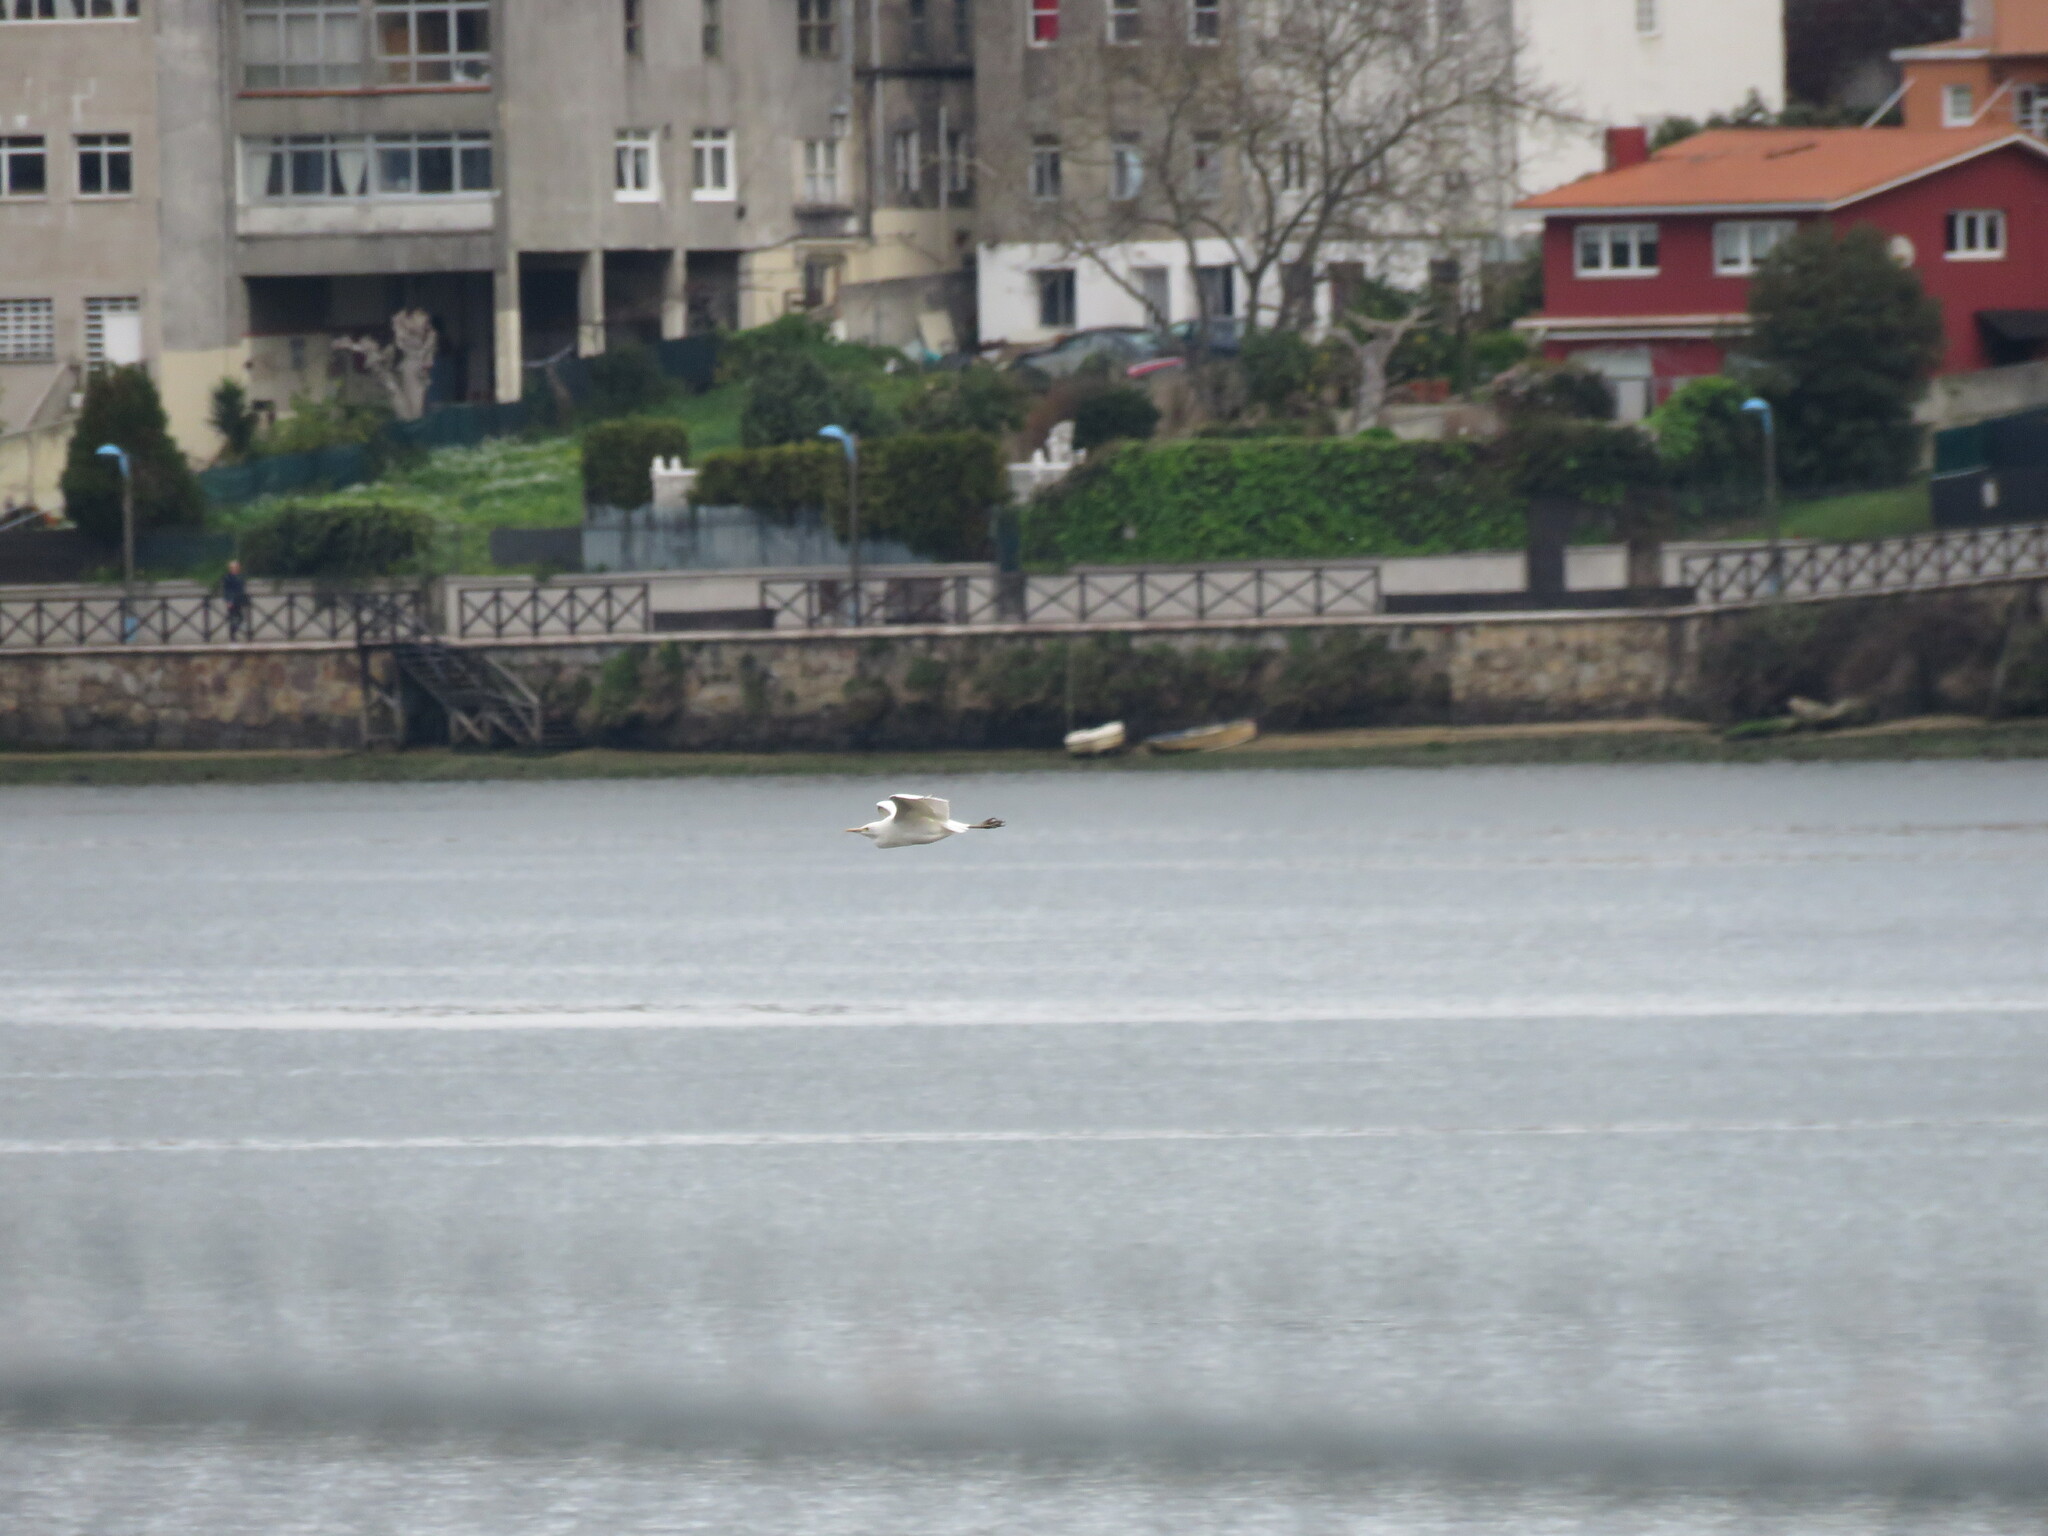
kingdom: Animalia
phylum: Chordata
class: Aves
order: Pelecaniformes
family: Ardeidae
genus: Bubulcus
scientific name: Bubulcus ibis
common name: Cattle egret
